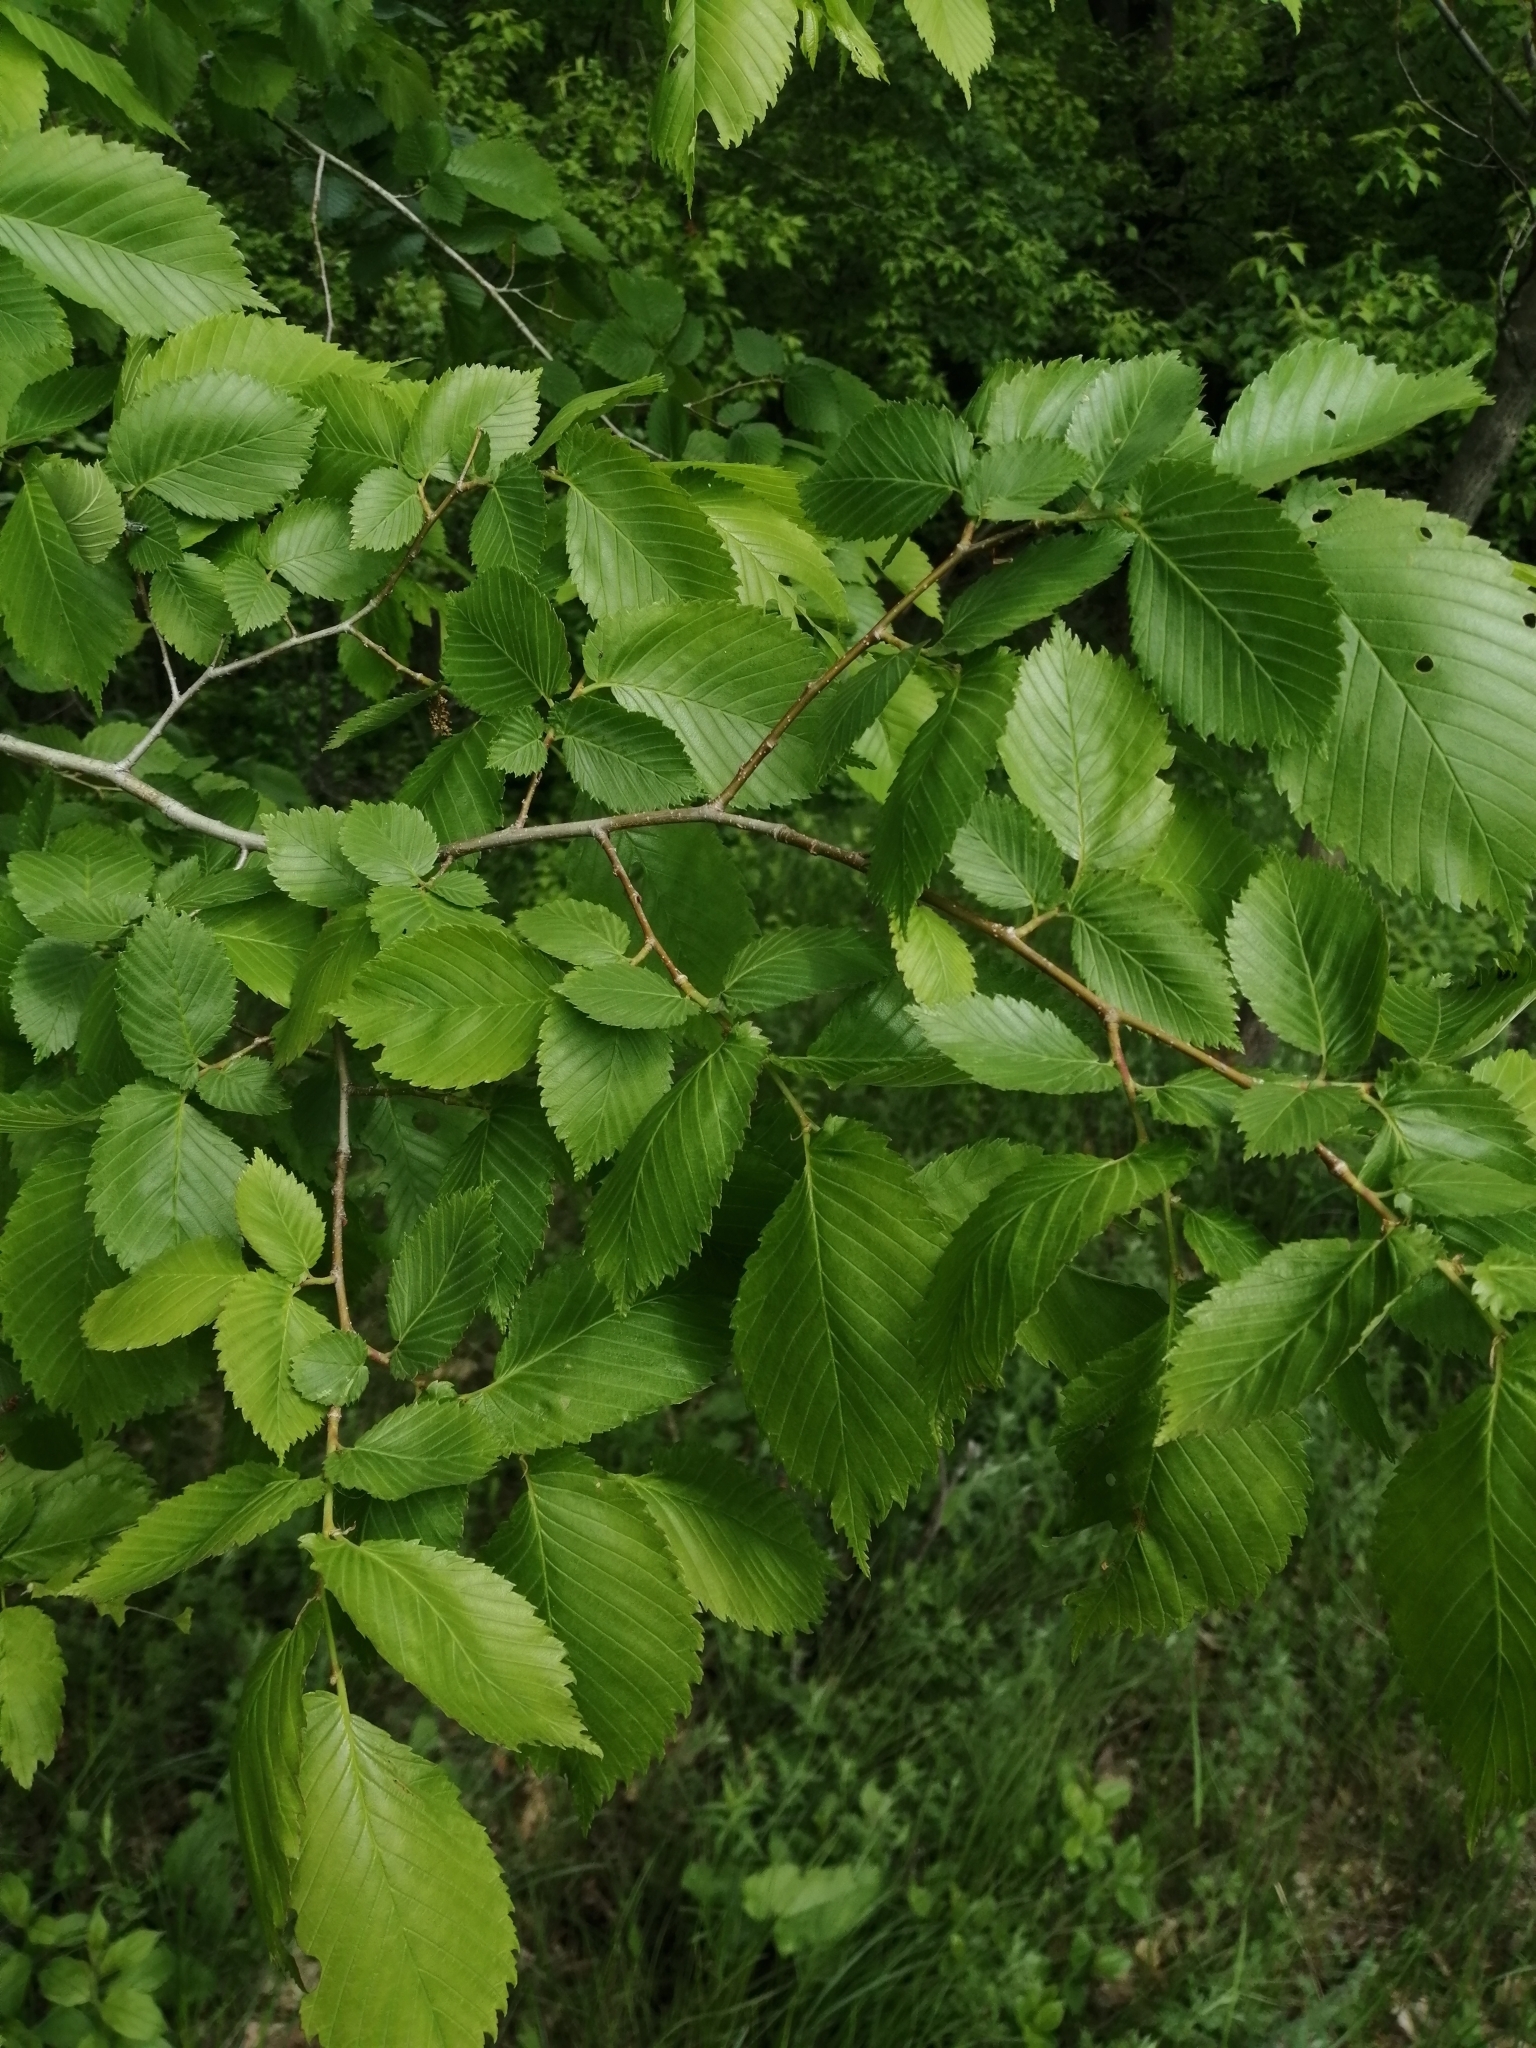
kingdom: Plantae
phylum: Tracheophyta
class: Magnoliopsida
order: Rosales
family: Ulmaceae
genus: Ulmus
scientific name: Ulmus laevis
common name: European white-elm
